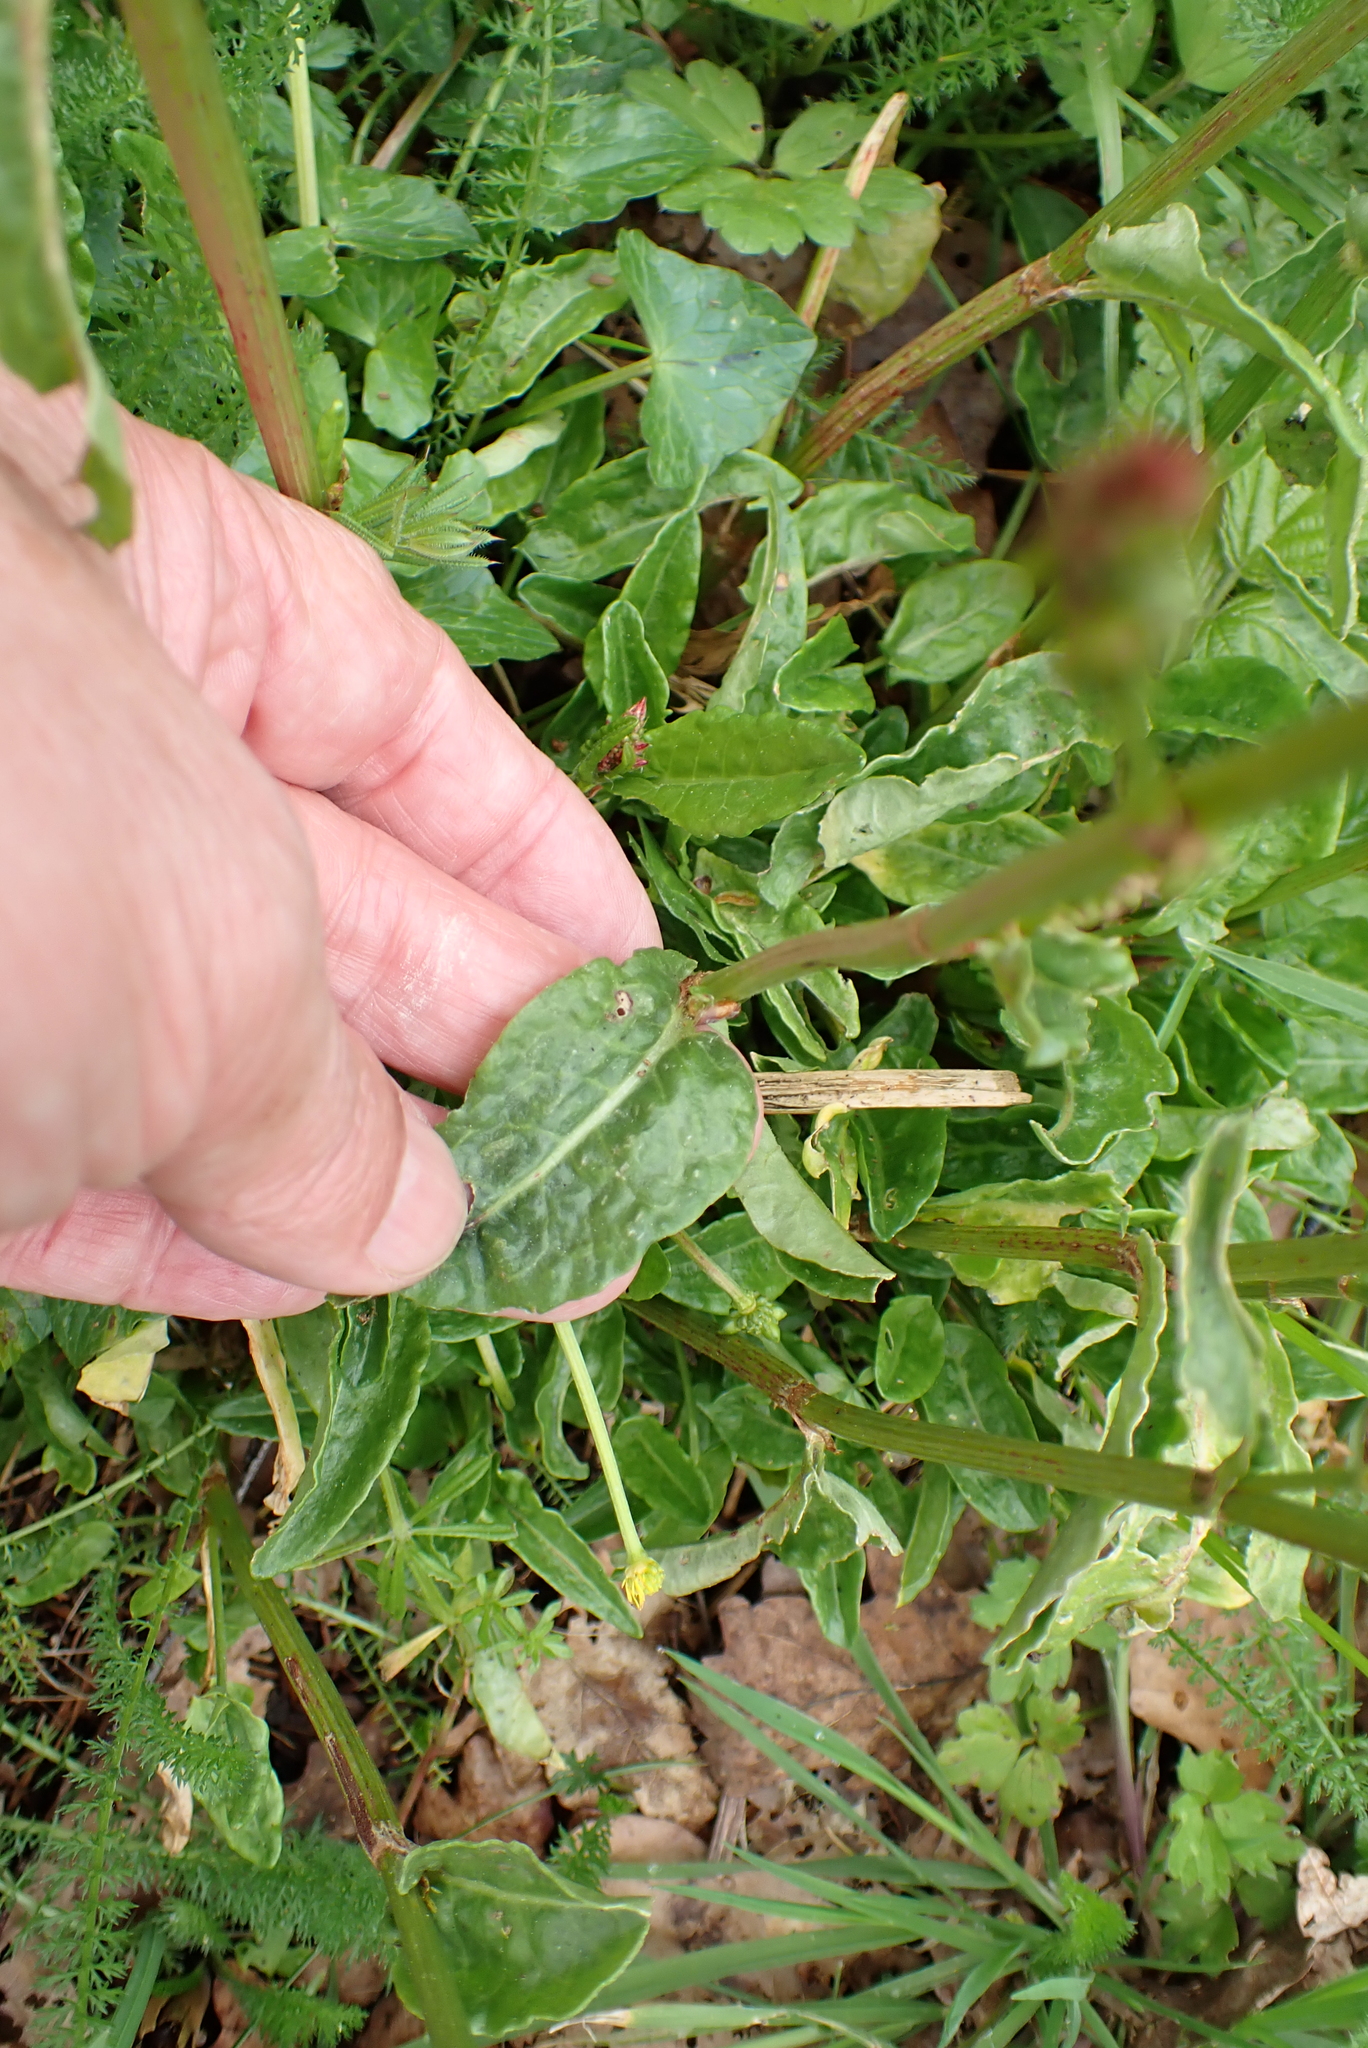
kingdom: Plantae
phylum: Tracheophyta
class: Magnoliopsida
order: Caryophyllales
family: Polygonaceae
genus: Rumex
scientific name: Rumex acetosa
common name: Garden sorrel
